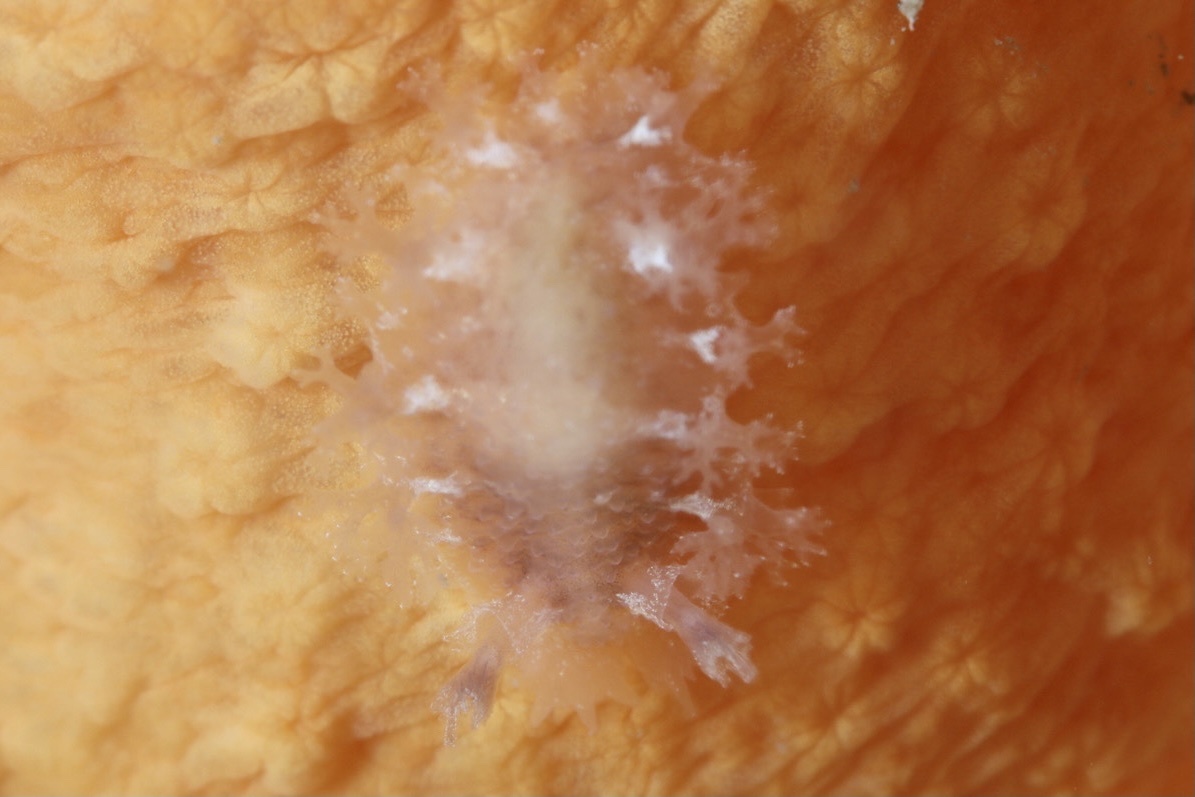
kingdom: Animalia
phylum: Mollusca
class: Gastropoda
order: Nudibranchia
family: Tritoniidae
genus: Tritonia
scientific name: Tritonia hombergii
